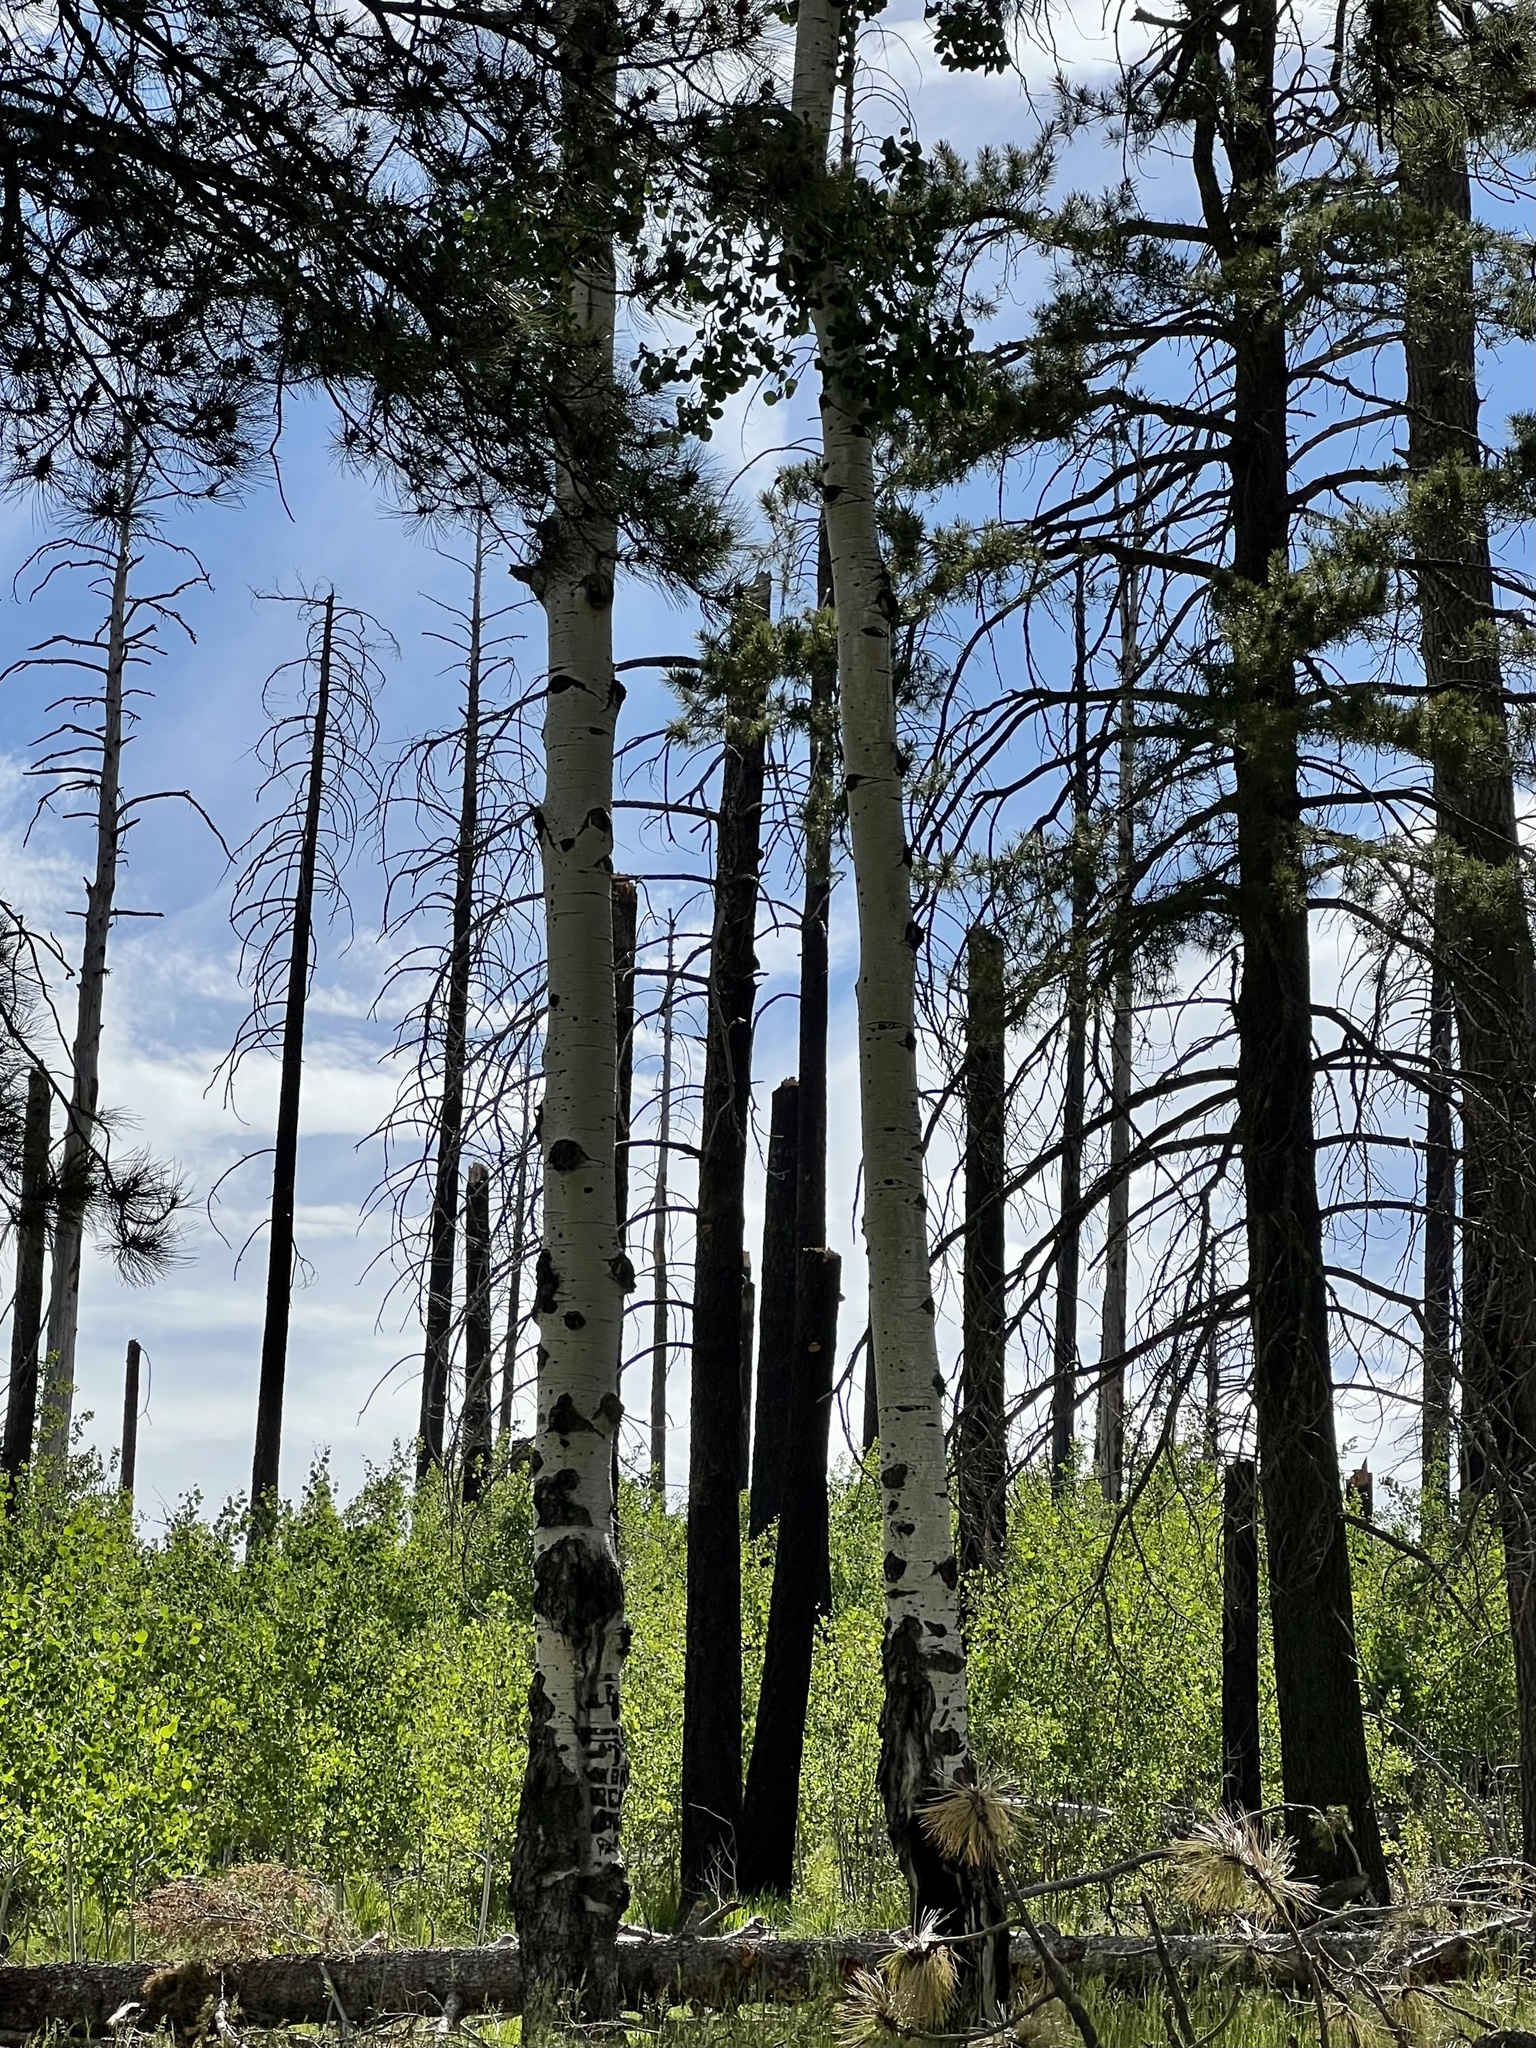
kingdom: Plantae
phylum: Tracheophyta
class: Magnoliopsida
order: Malpighiales
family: Salicaceae
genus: Populus
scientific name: Populus tremuloides
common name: Quaking aspen
